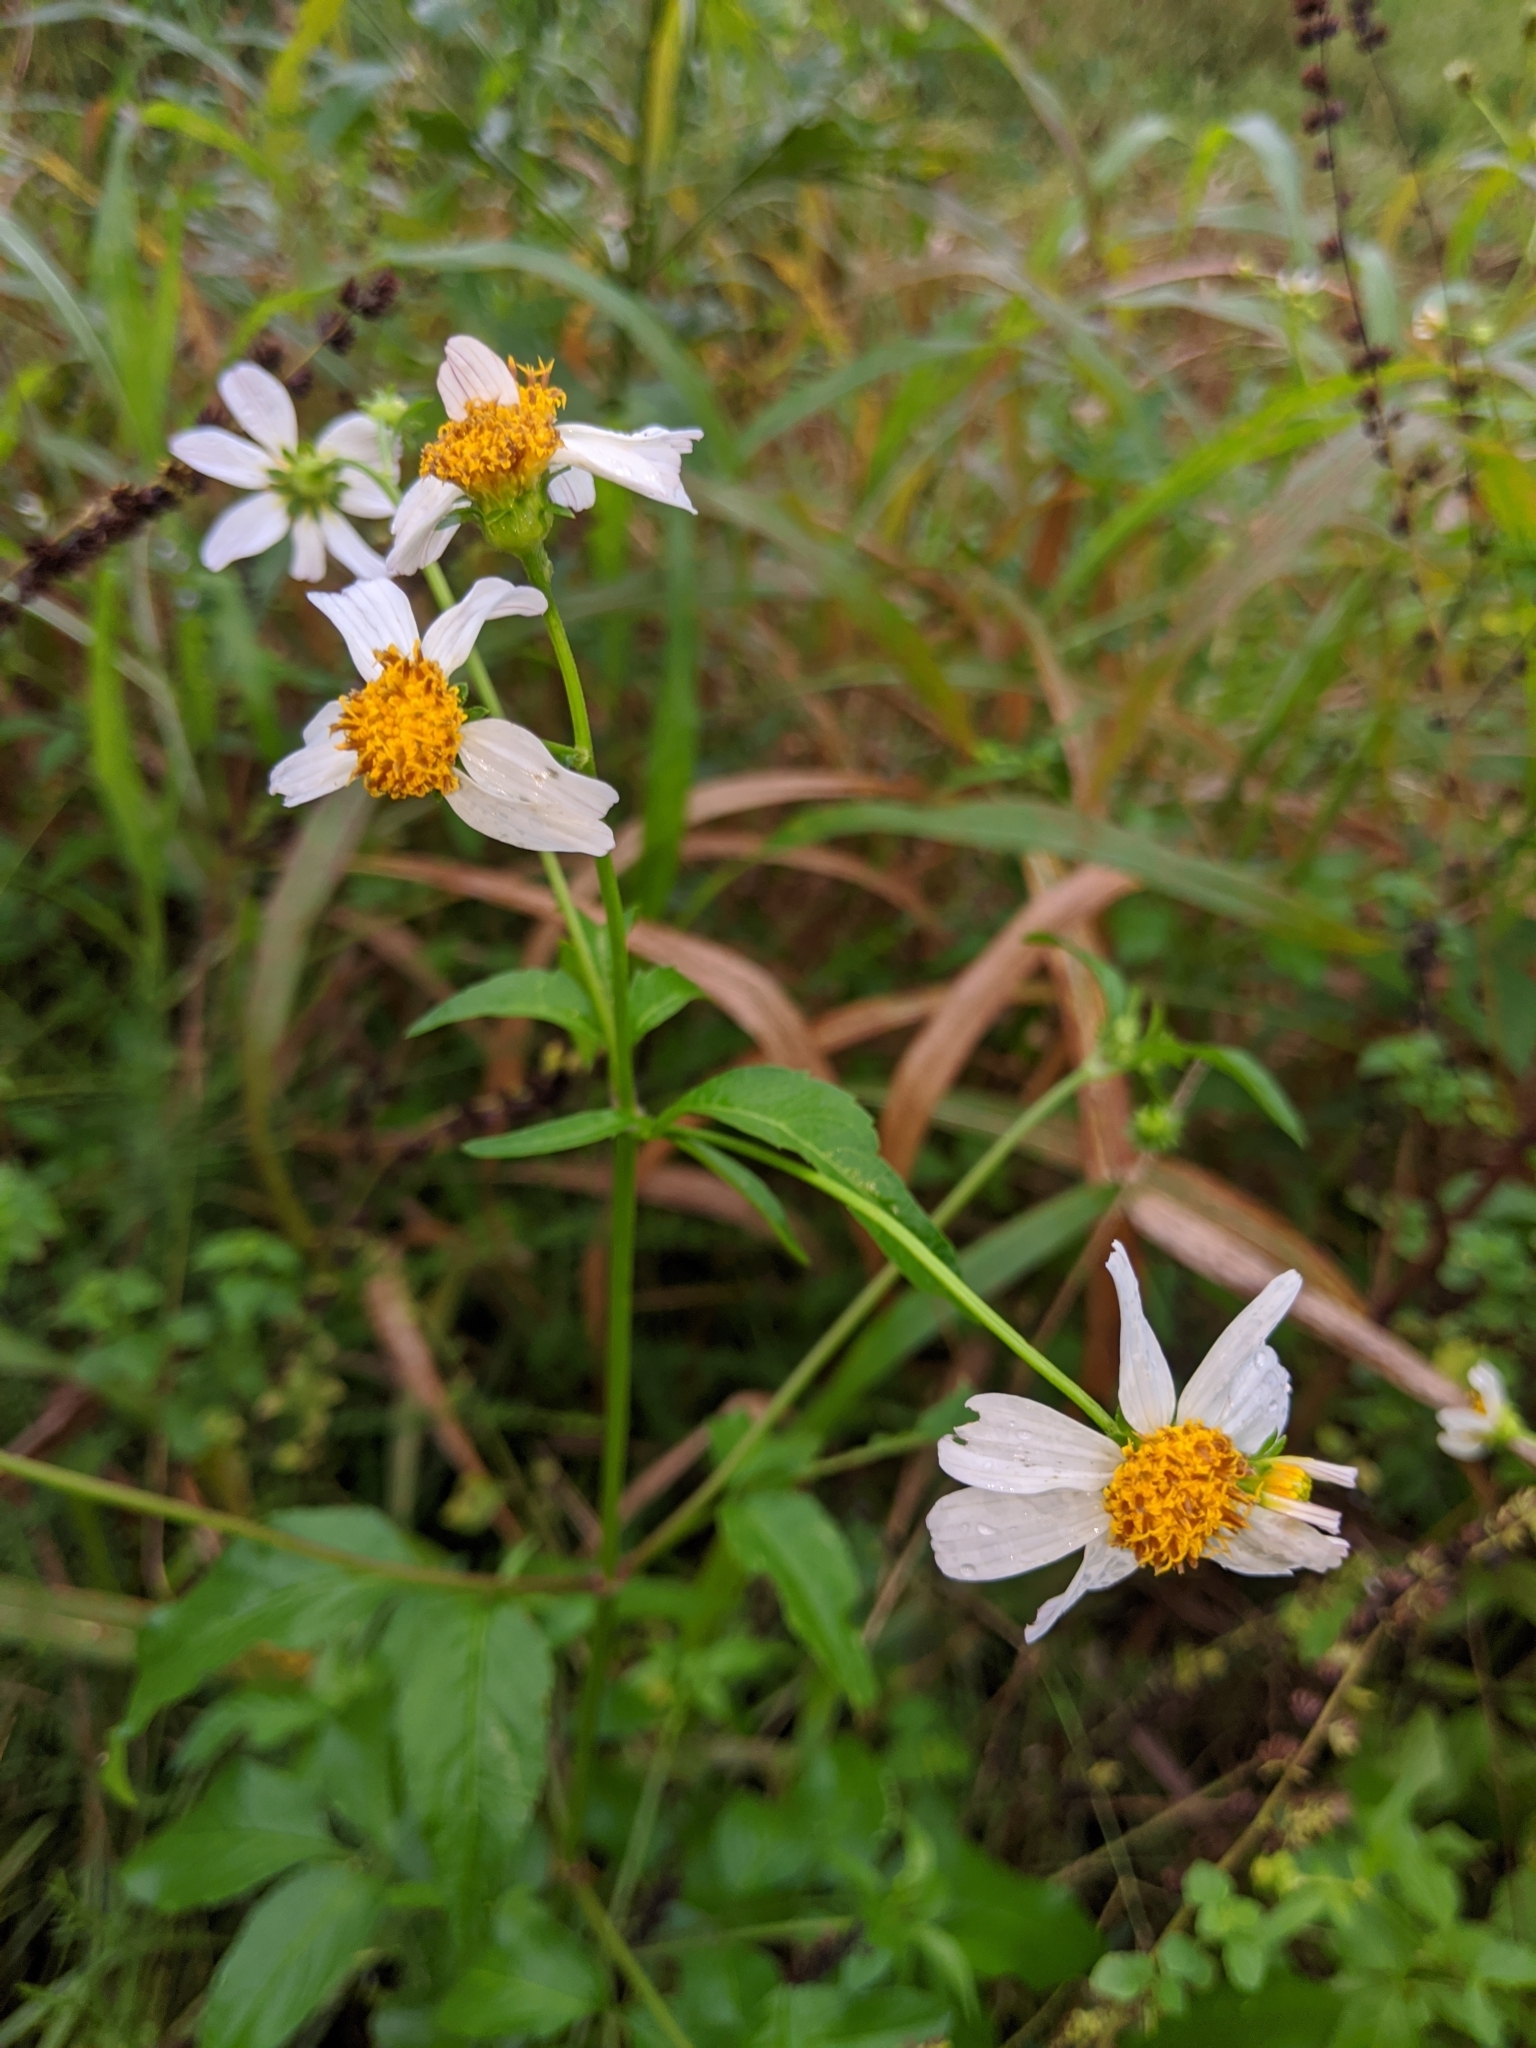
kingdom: Plantae
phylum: Tracheophyta
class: Magnoliopsida
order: Asterales
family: Asteraceae
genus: Bidens
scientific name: Bidens alba
